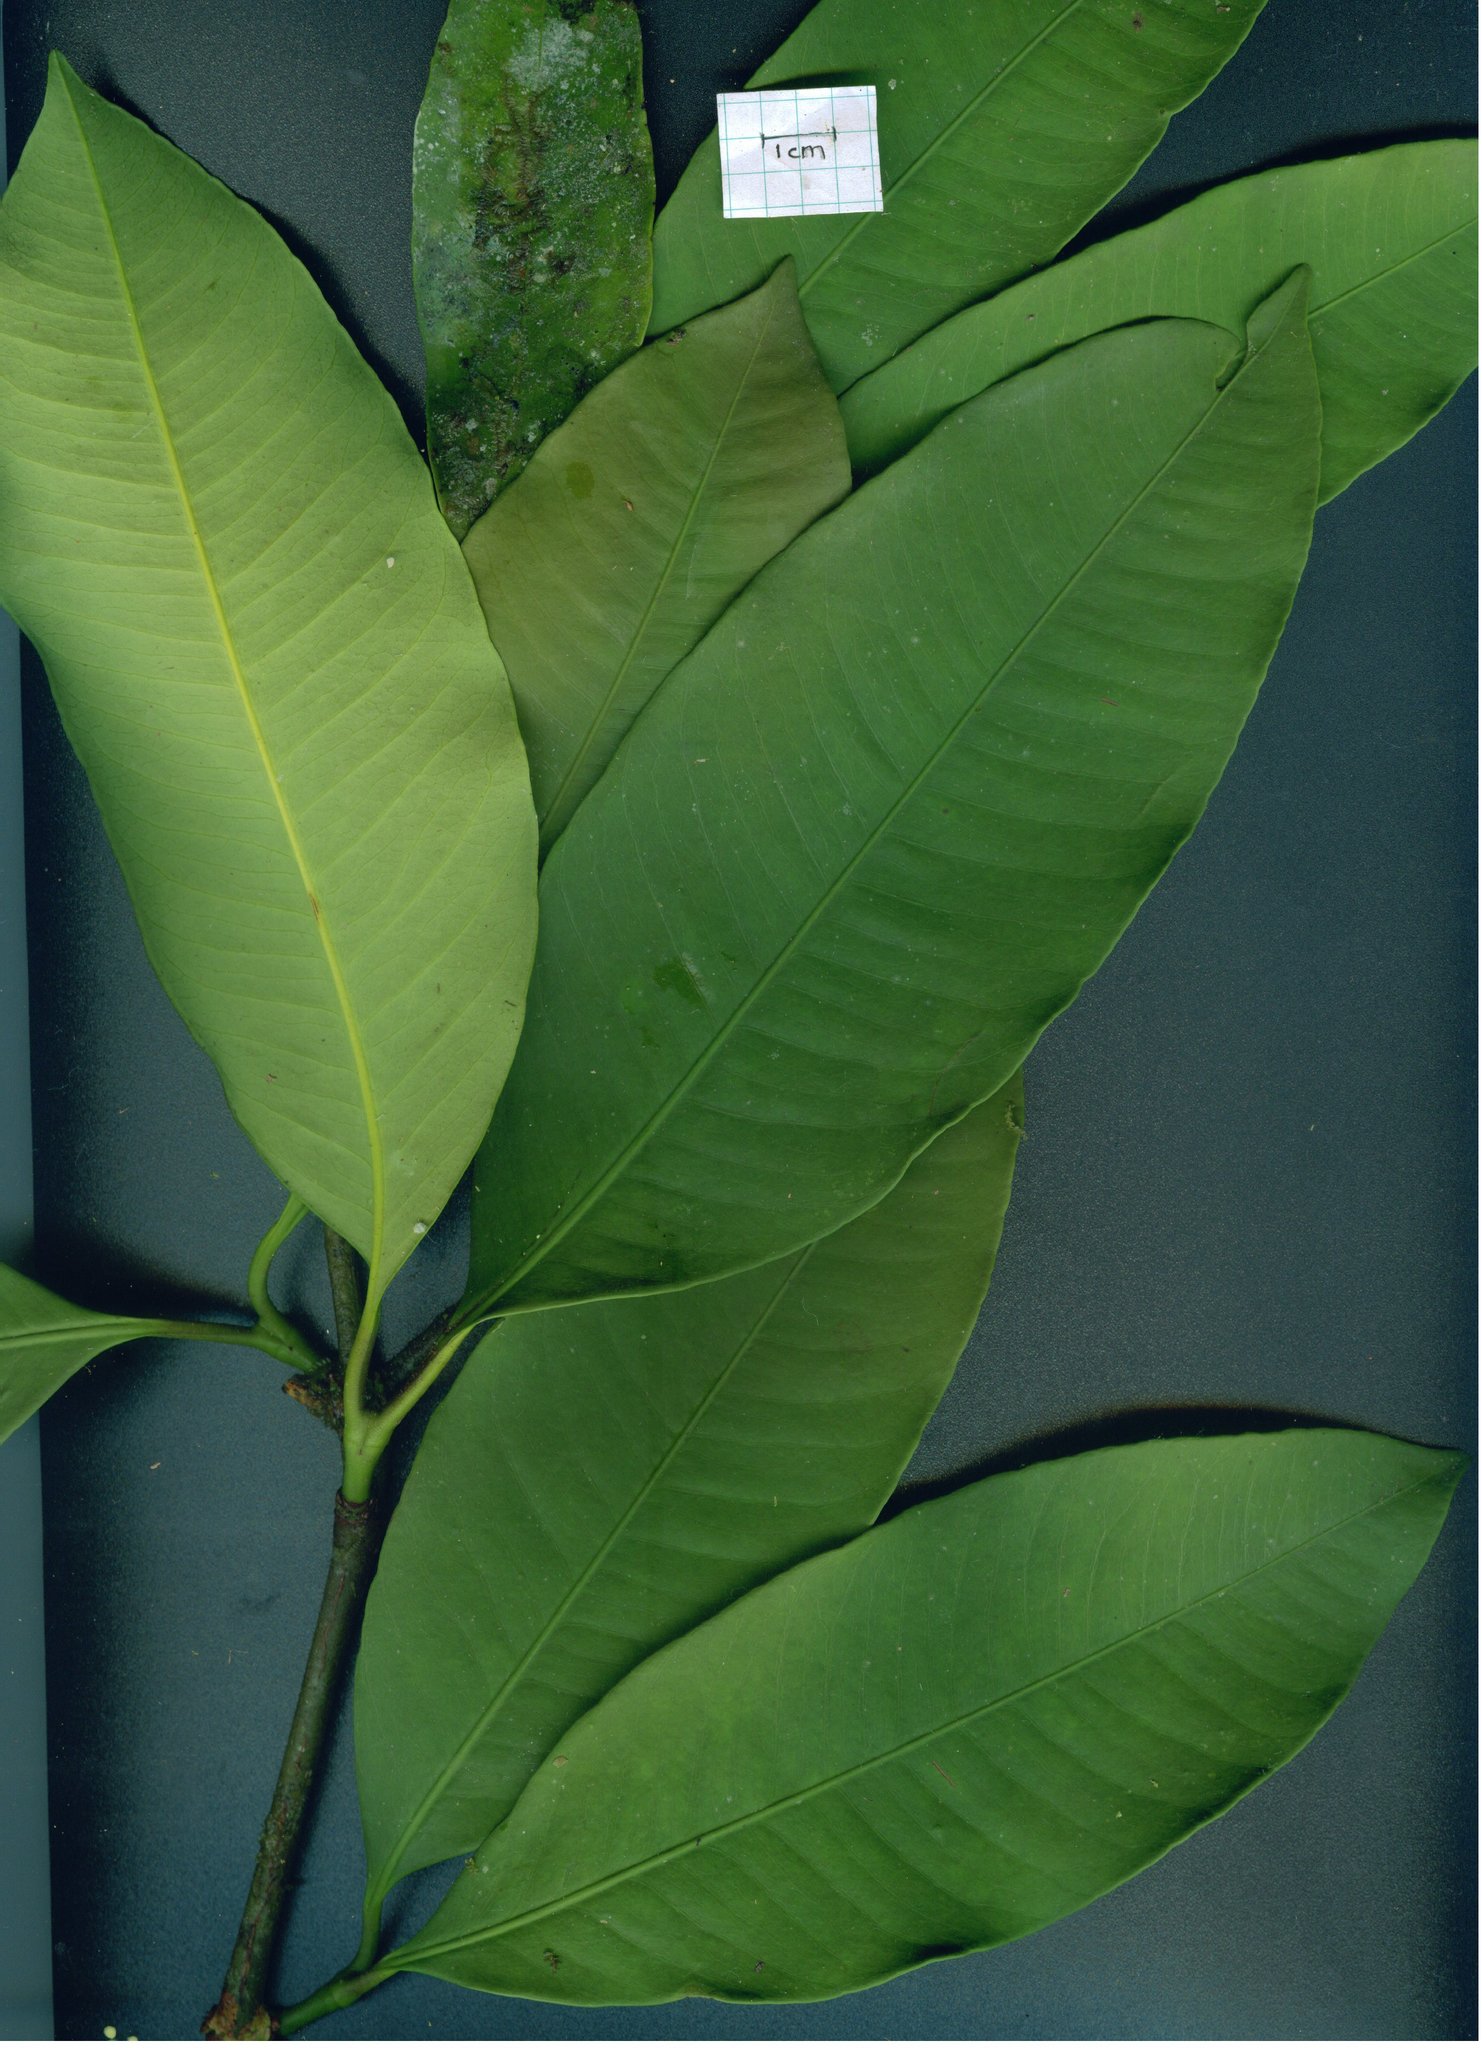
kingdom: Plantae
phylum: Tracheophyta
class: Magnoliopsida
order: Malpighiales
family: Clusiaceae
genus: Garcinia
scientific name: Garcinia madruno
